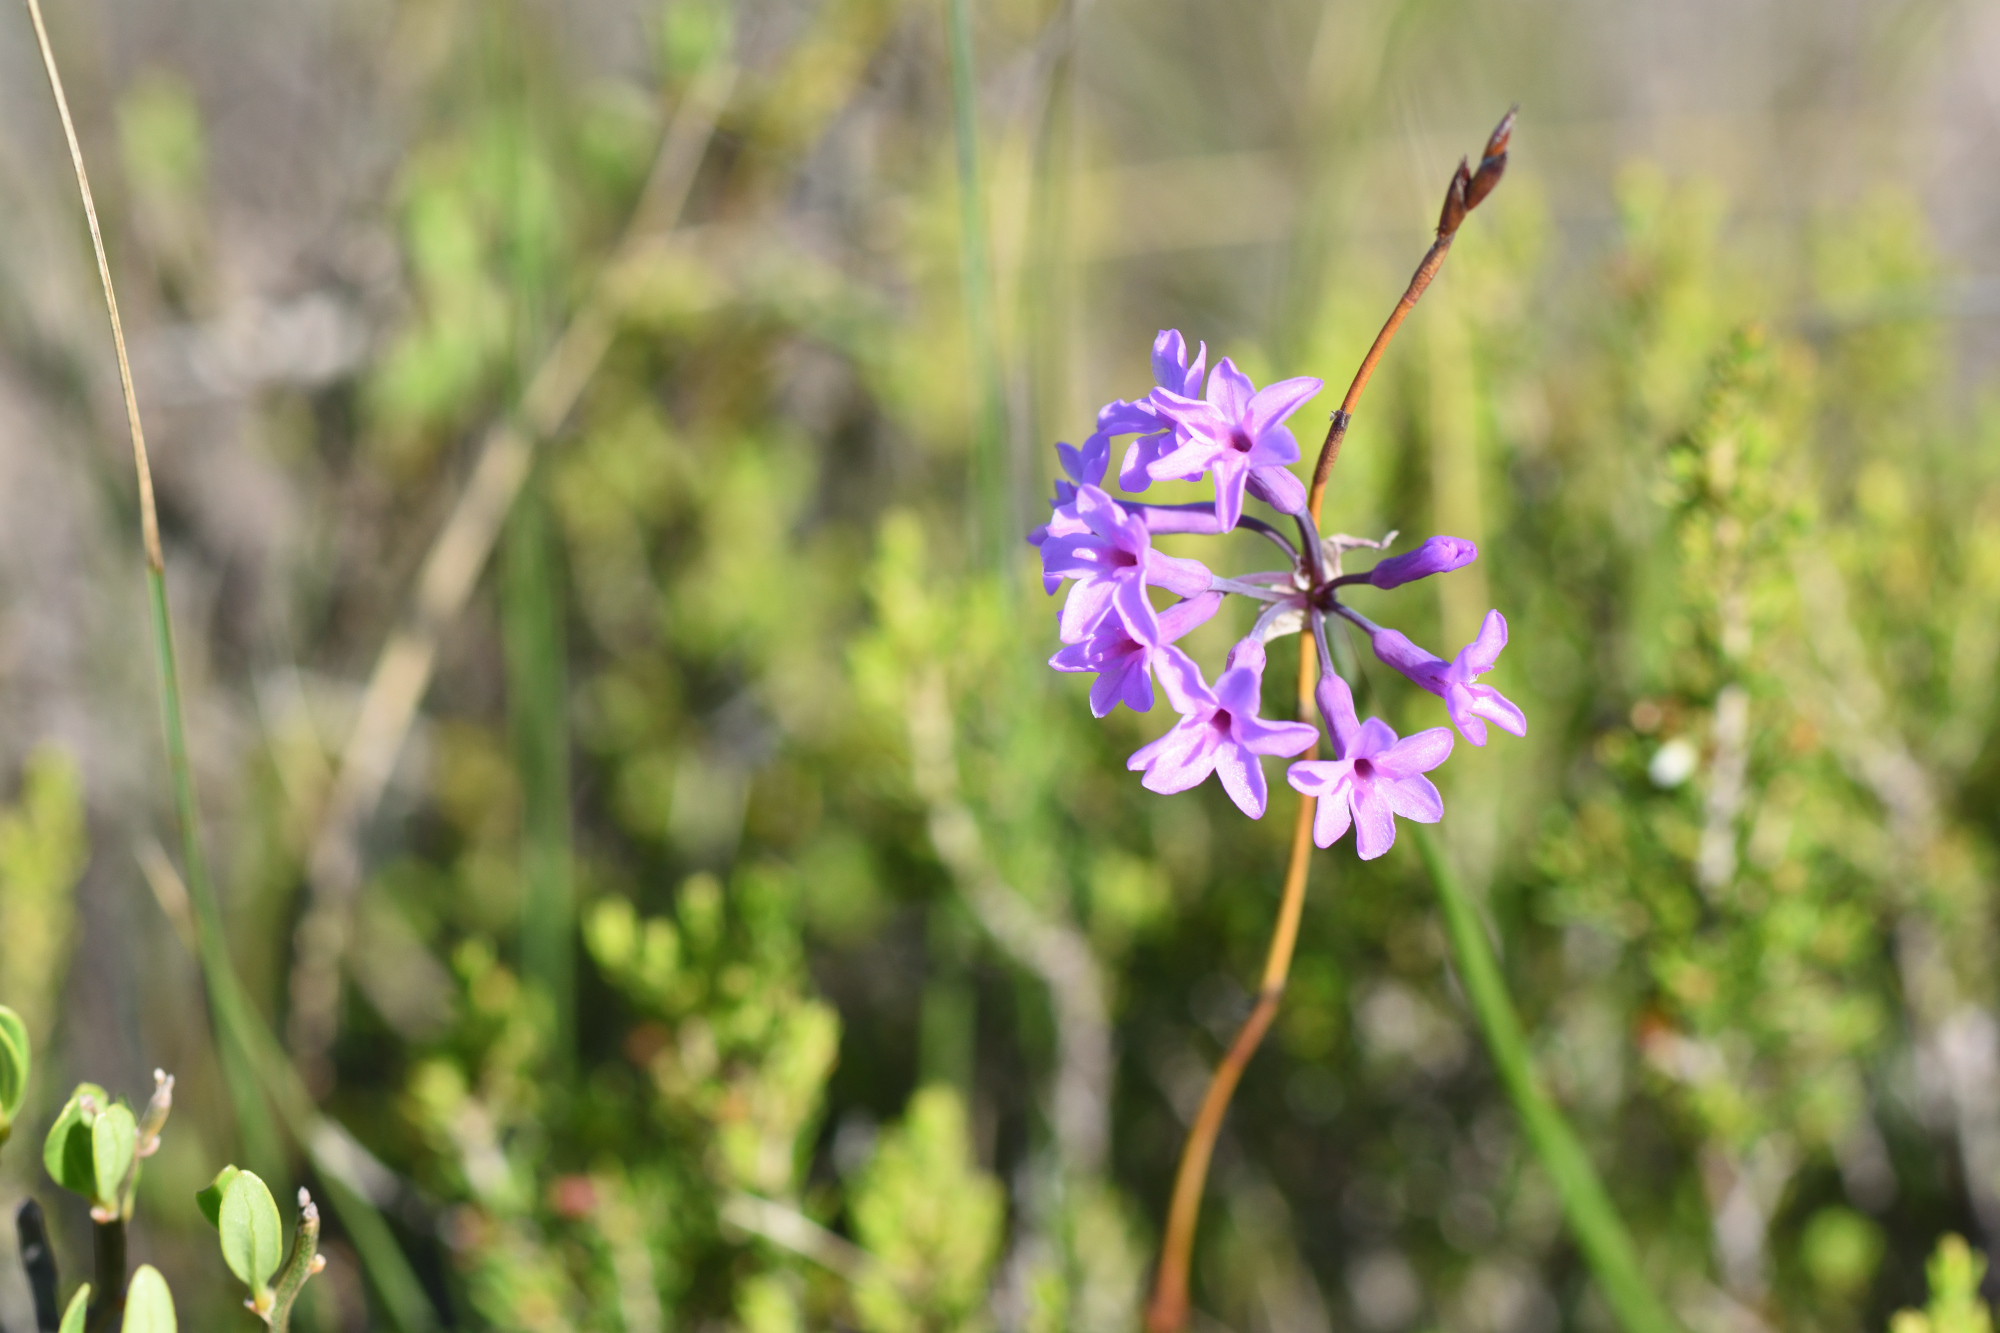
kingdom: Plantae
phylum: Tracheophyta
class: Liliopsida
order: Asparagales
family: Amaryllidaceae
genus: Tulbaghia
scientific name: Tulbaghia violacea
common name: Society garlic
